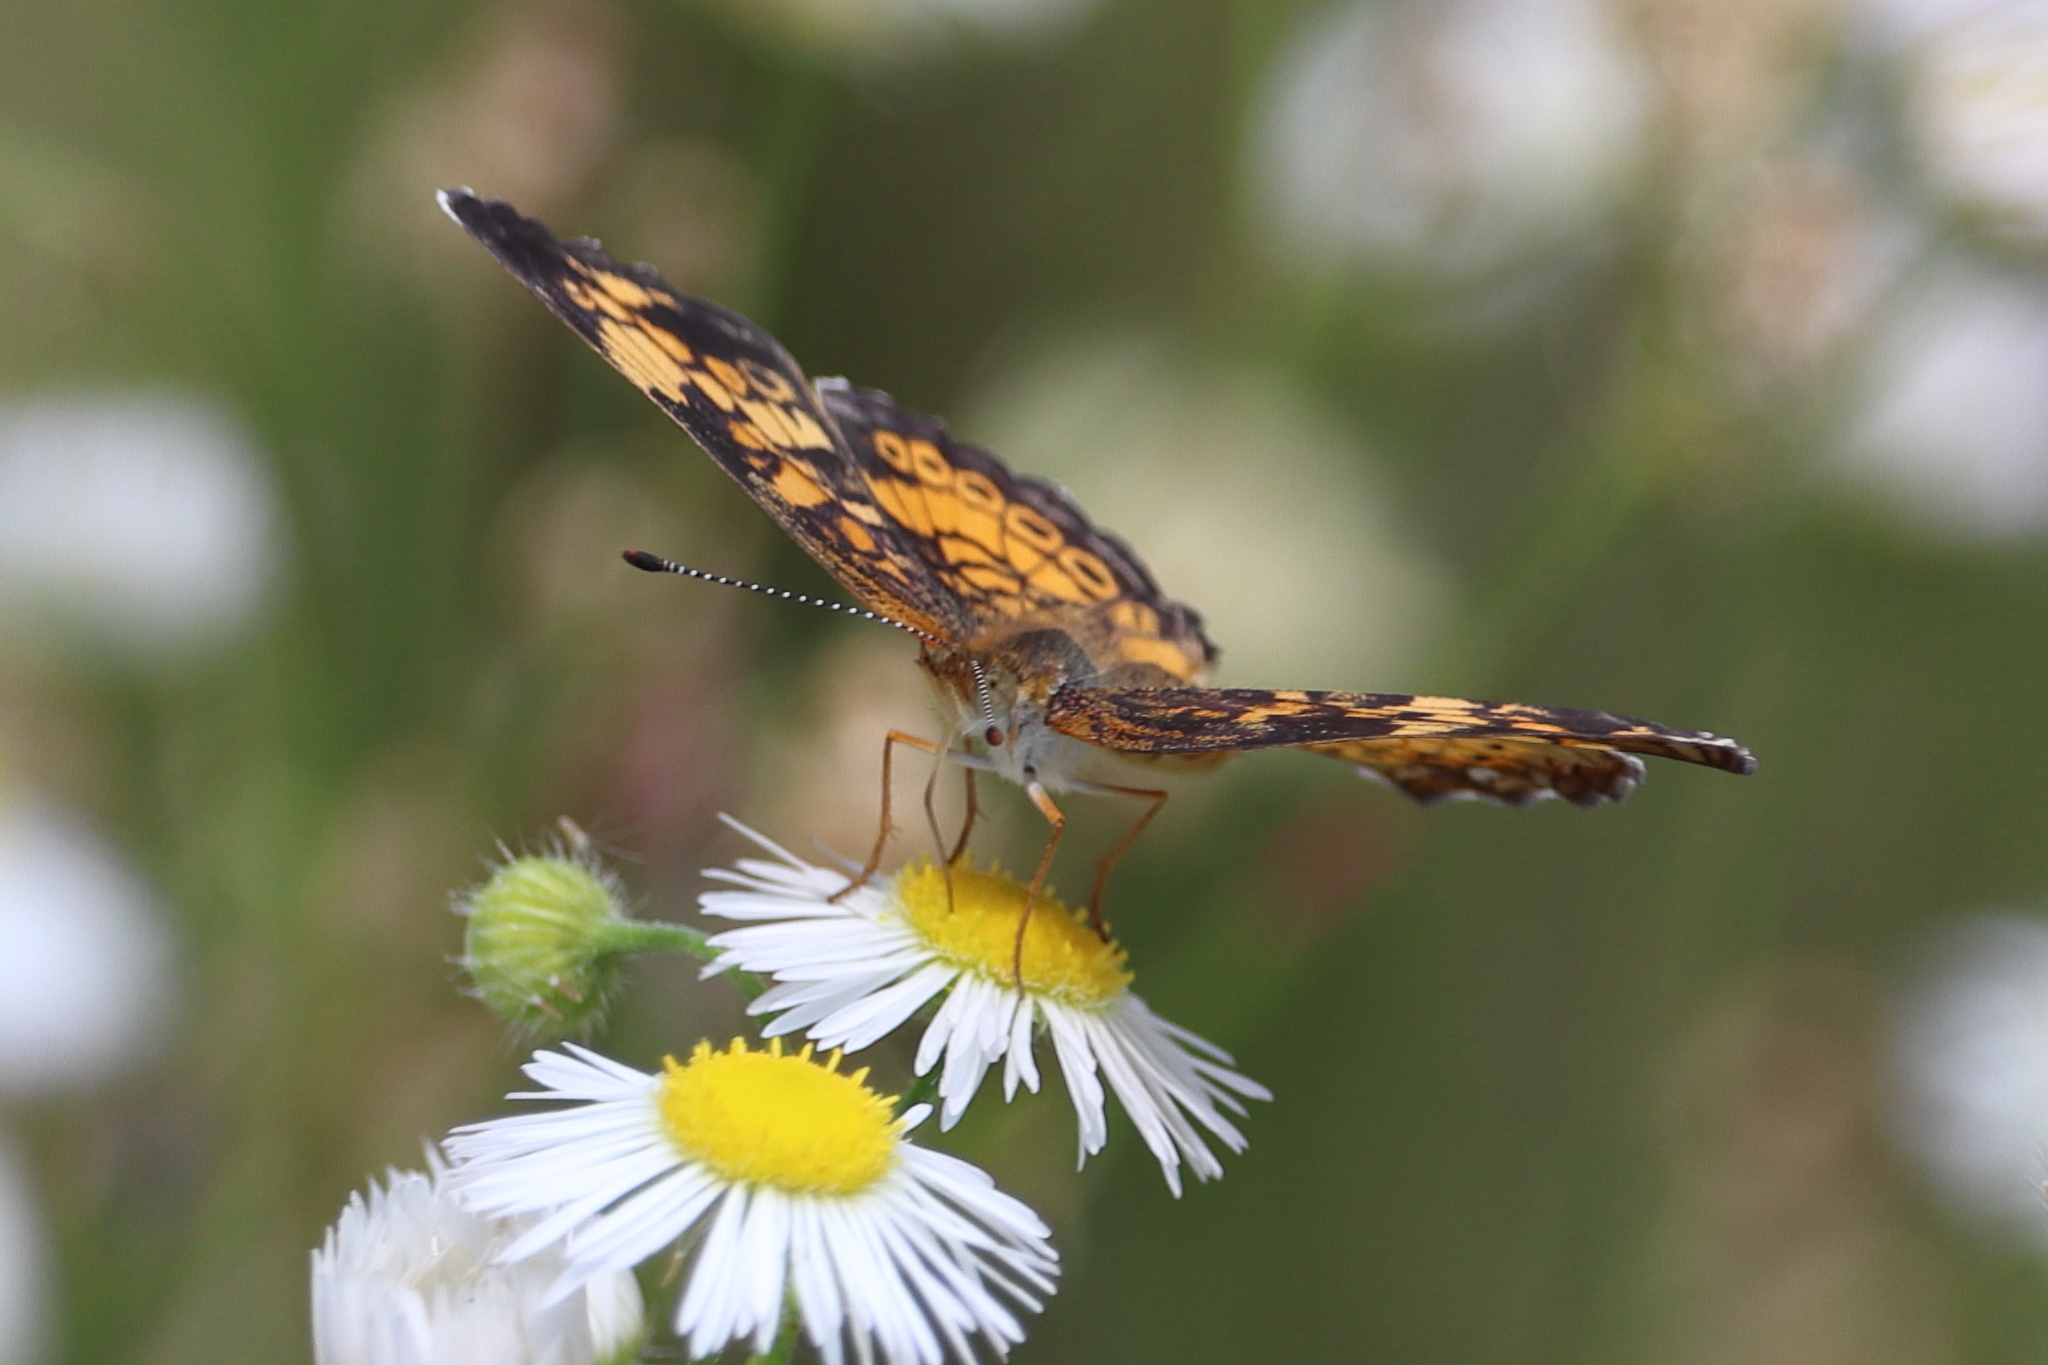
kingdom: Animalia
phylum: Arthropoda
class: Insecta
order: Lepidoptera
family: Nymphalidae
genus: Phyciodes
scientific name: Phyciodes tharos
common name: Pearl crescent
